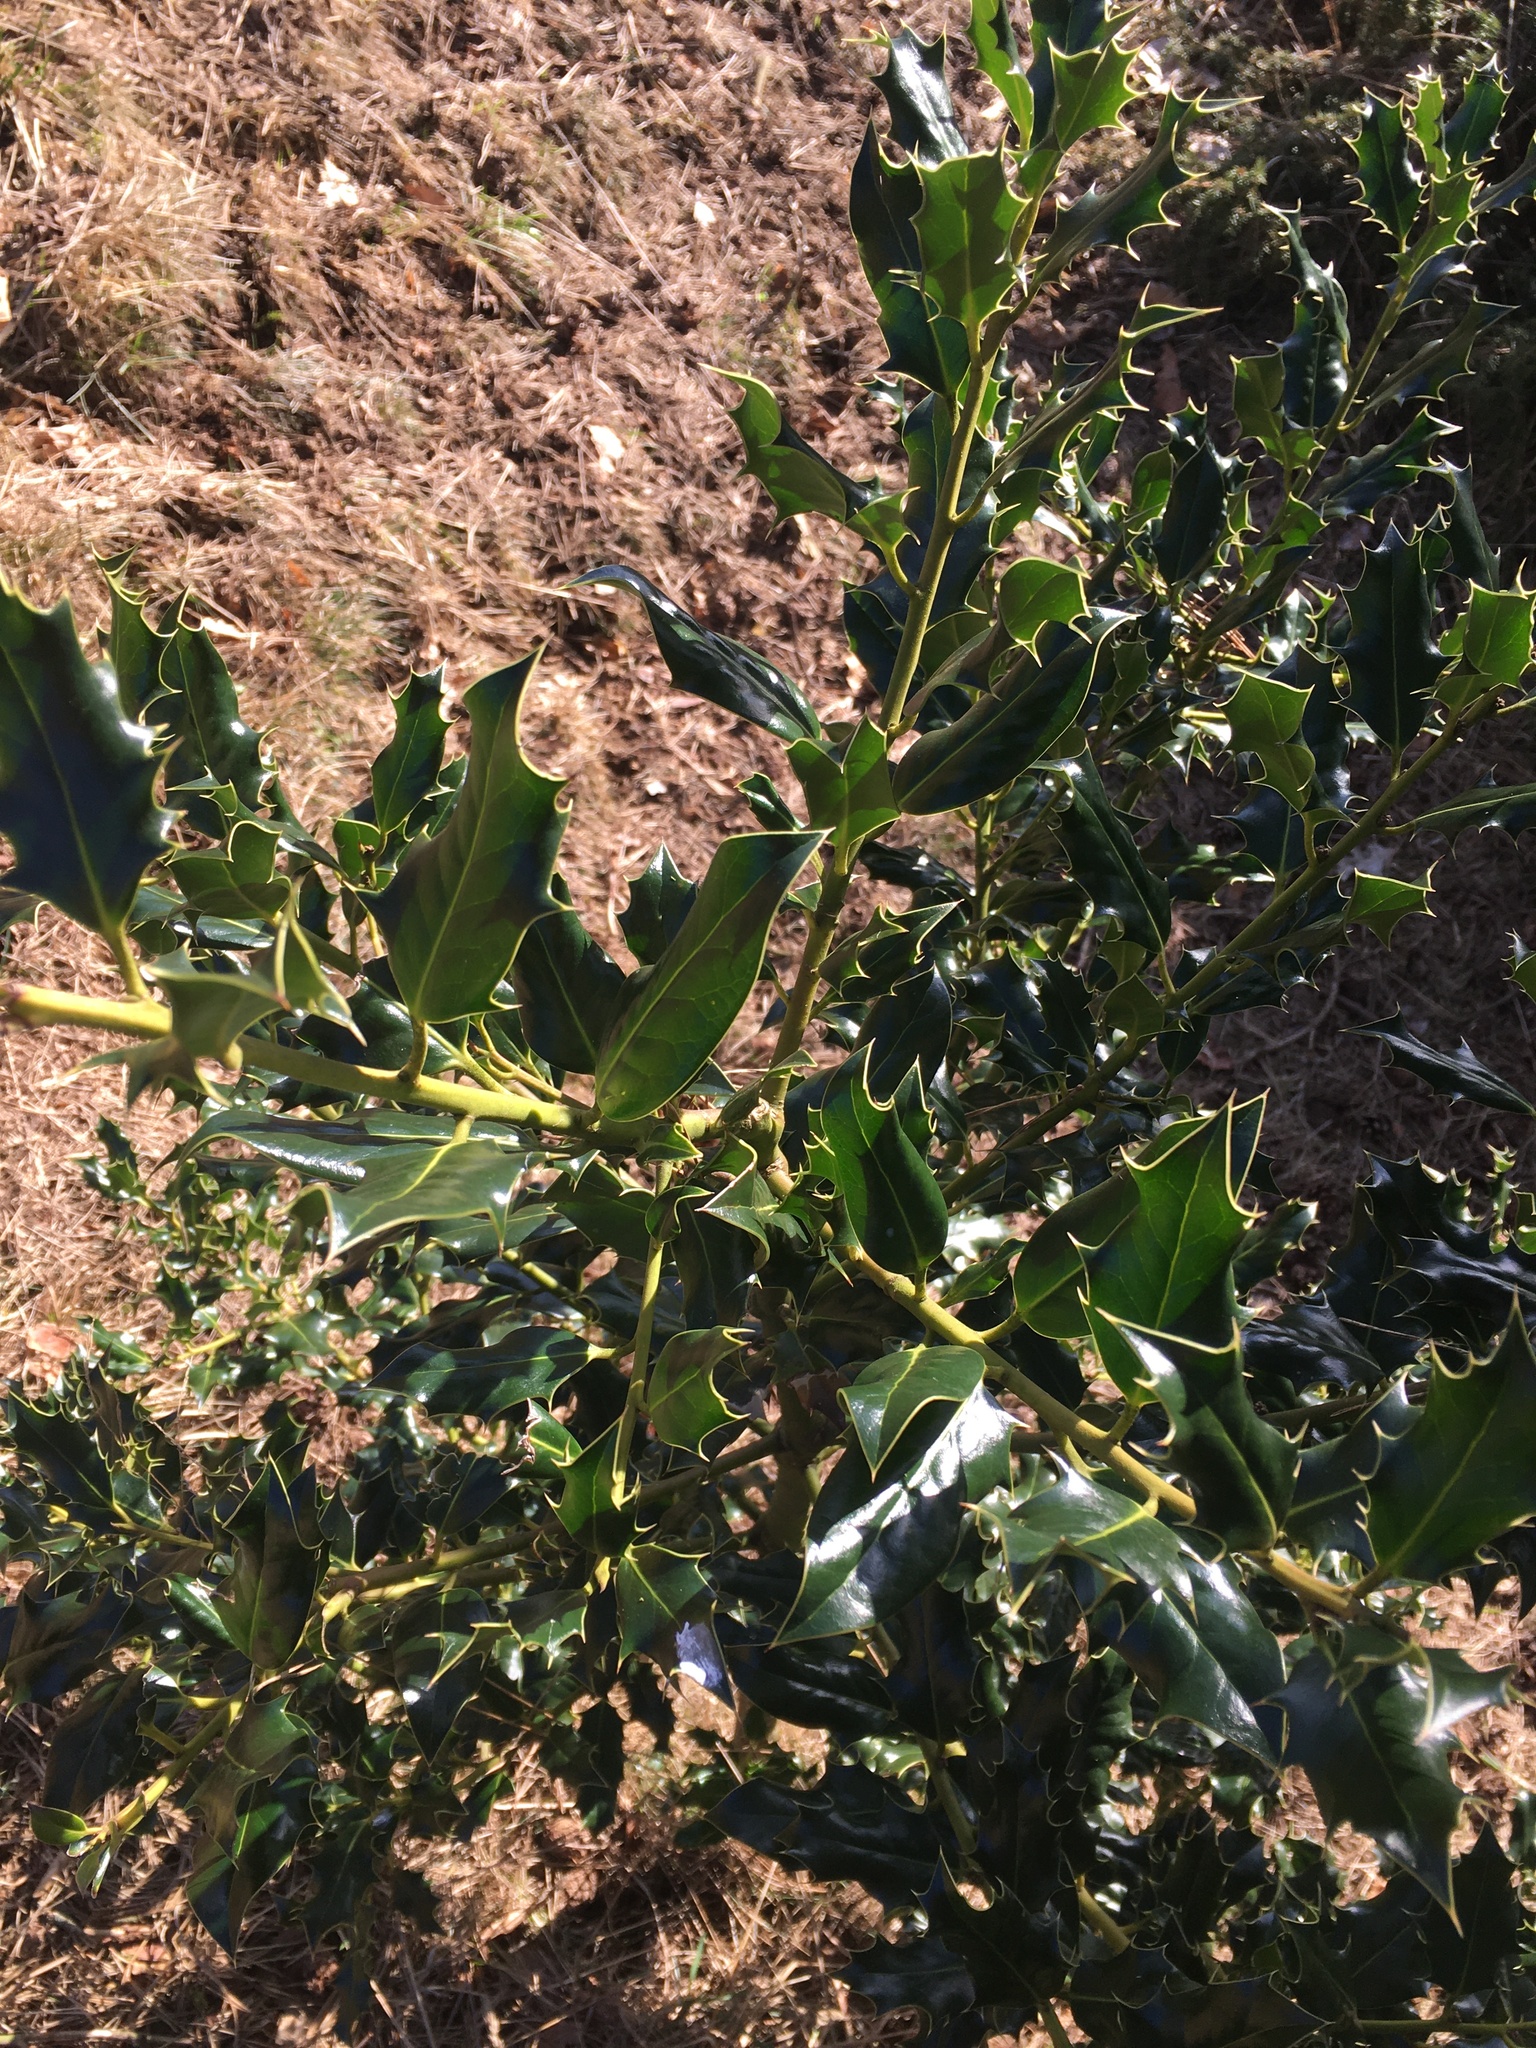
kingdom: Plantae
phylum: Tracheophyta
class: Magnoliopsida
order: Aquifoliales
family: Aquifoliaceae
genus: Ilex
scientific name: Ilex aquifolium
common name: English holly
